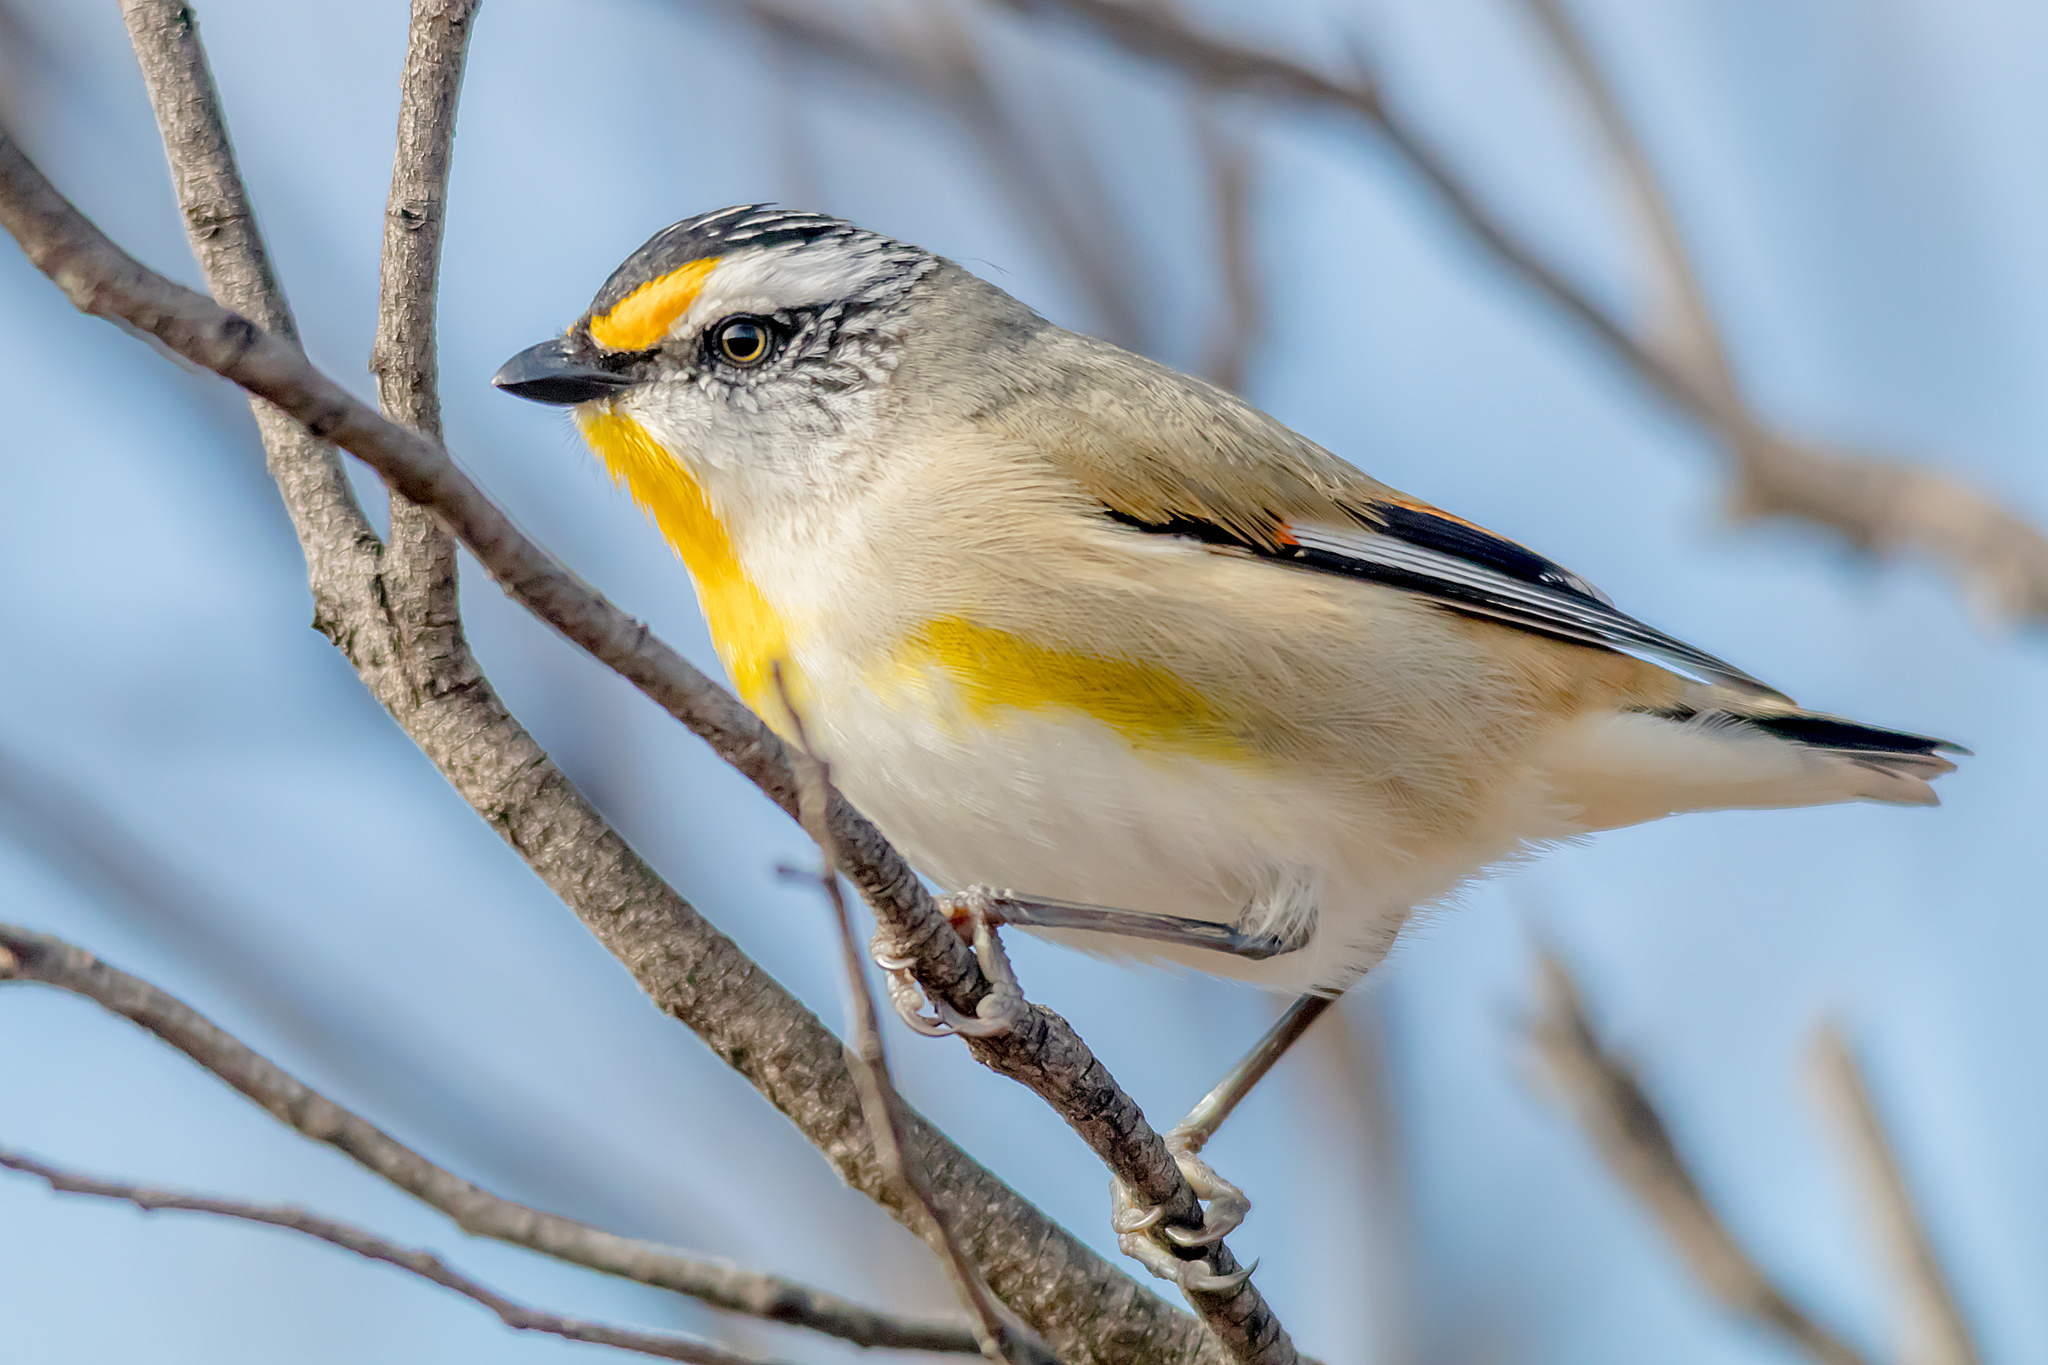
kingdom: Animalia
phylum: Chordata
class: Aves
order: Passeriformes
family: Pardalotidae
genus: Pardalotus
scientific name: Pardalotus striatus
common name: Striated pardalote
